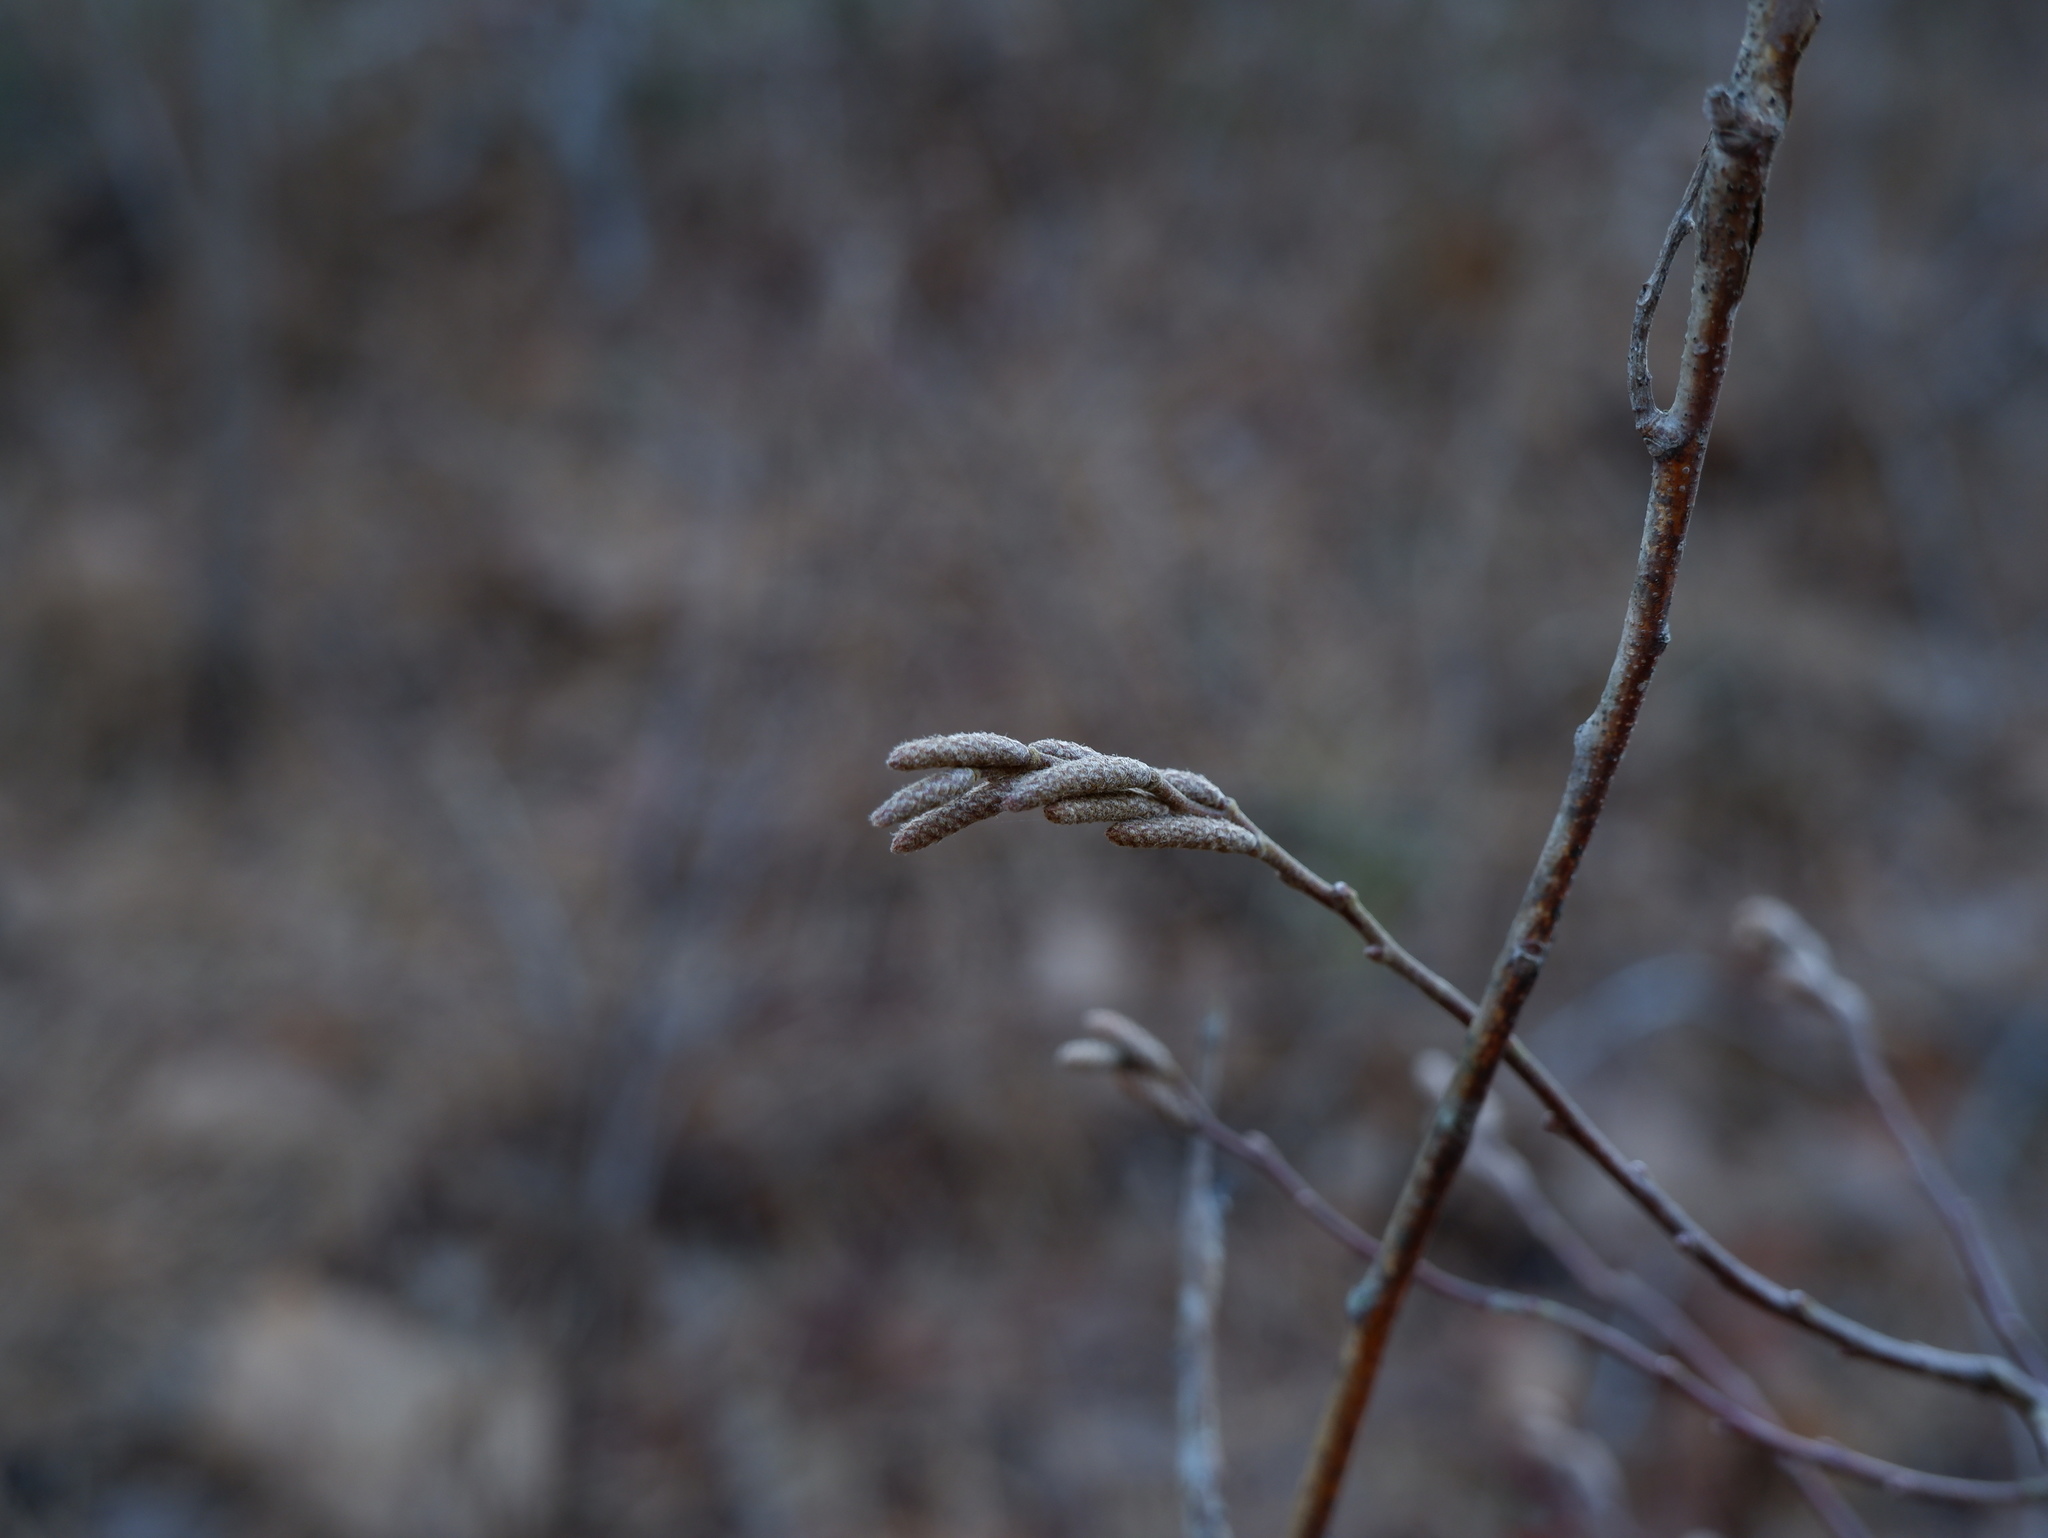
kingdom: Plantae
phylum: Tracheophyta
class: Magnoliopsida
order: Fagales
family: Myricaceae
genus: Comptonia
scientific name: Comptonia peregrina
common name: Sweet-fern
